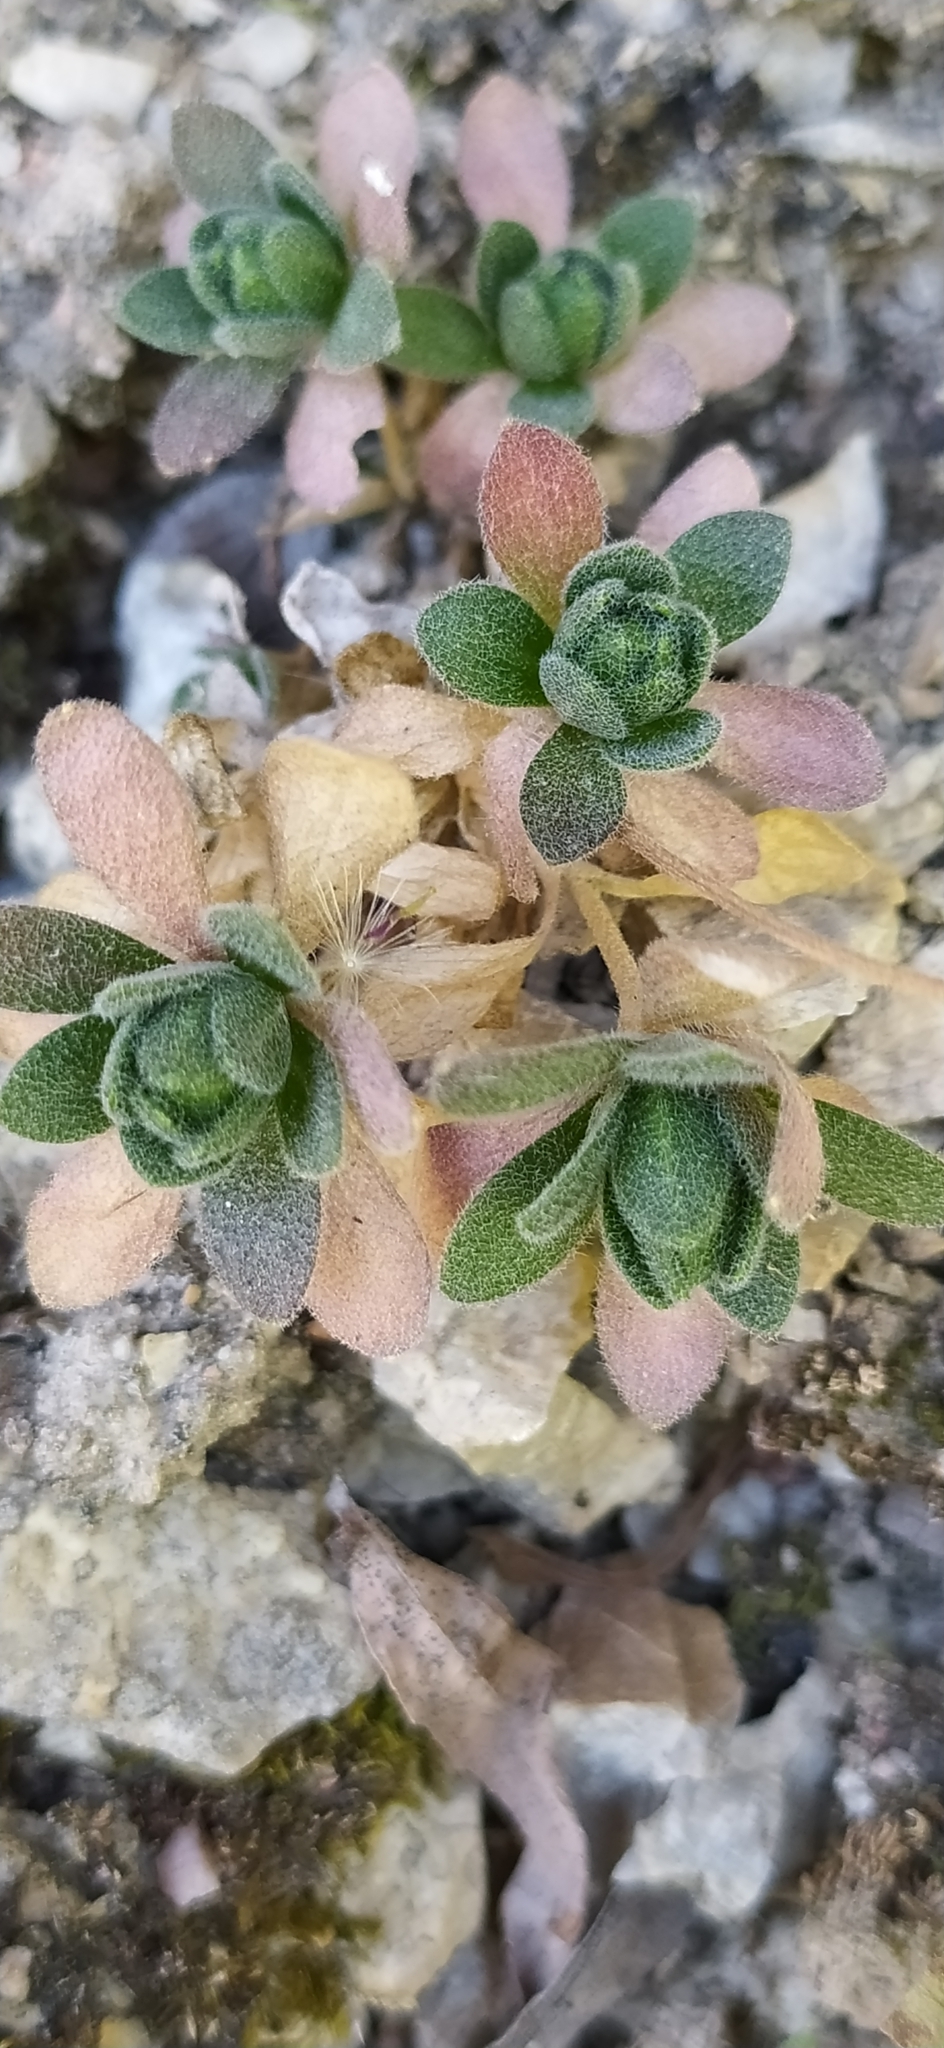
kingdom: Plantae
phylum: Tracheophyta
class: Magnoliopsida
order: Brassicales
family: Brassicaceae
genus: Draba
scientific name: Draba arseniewi
